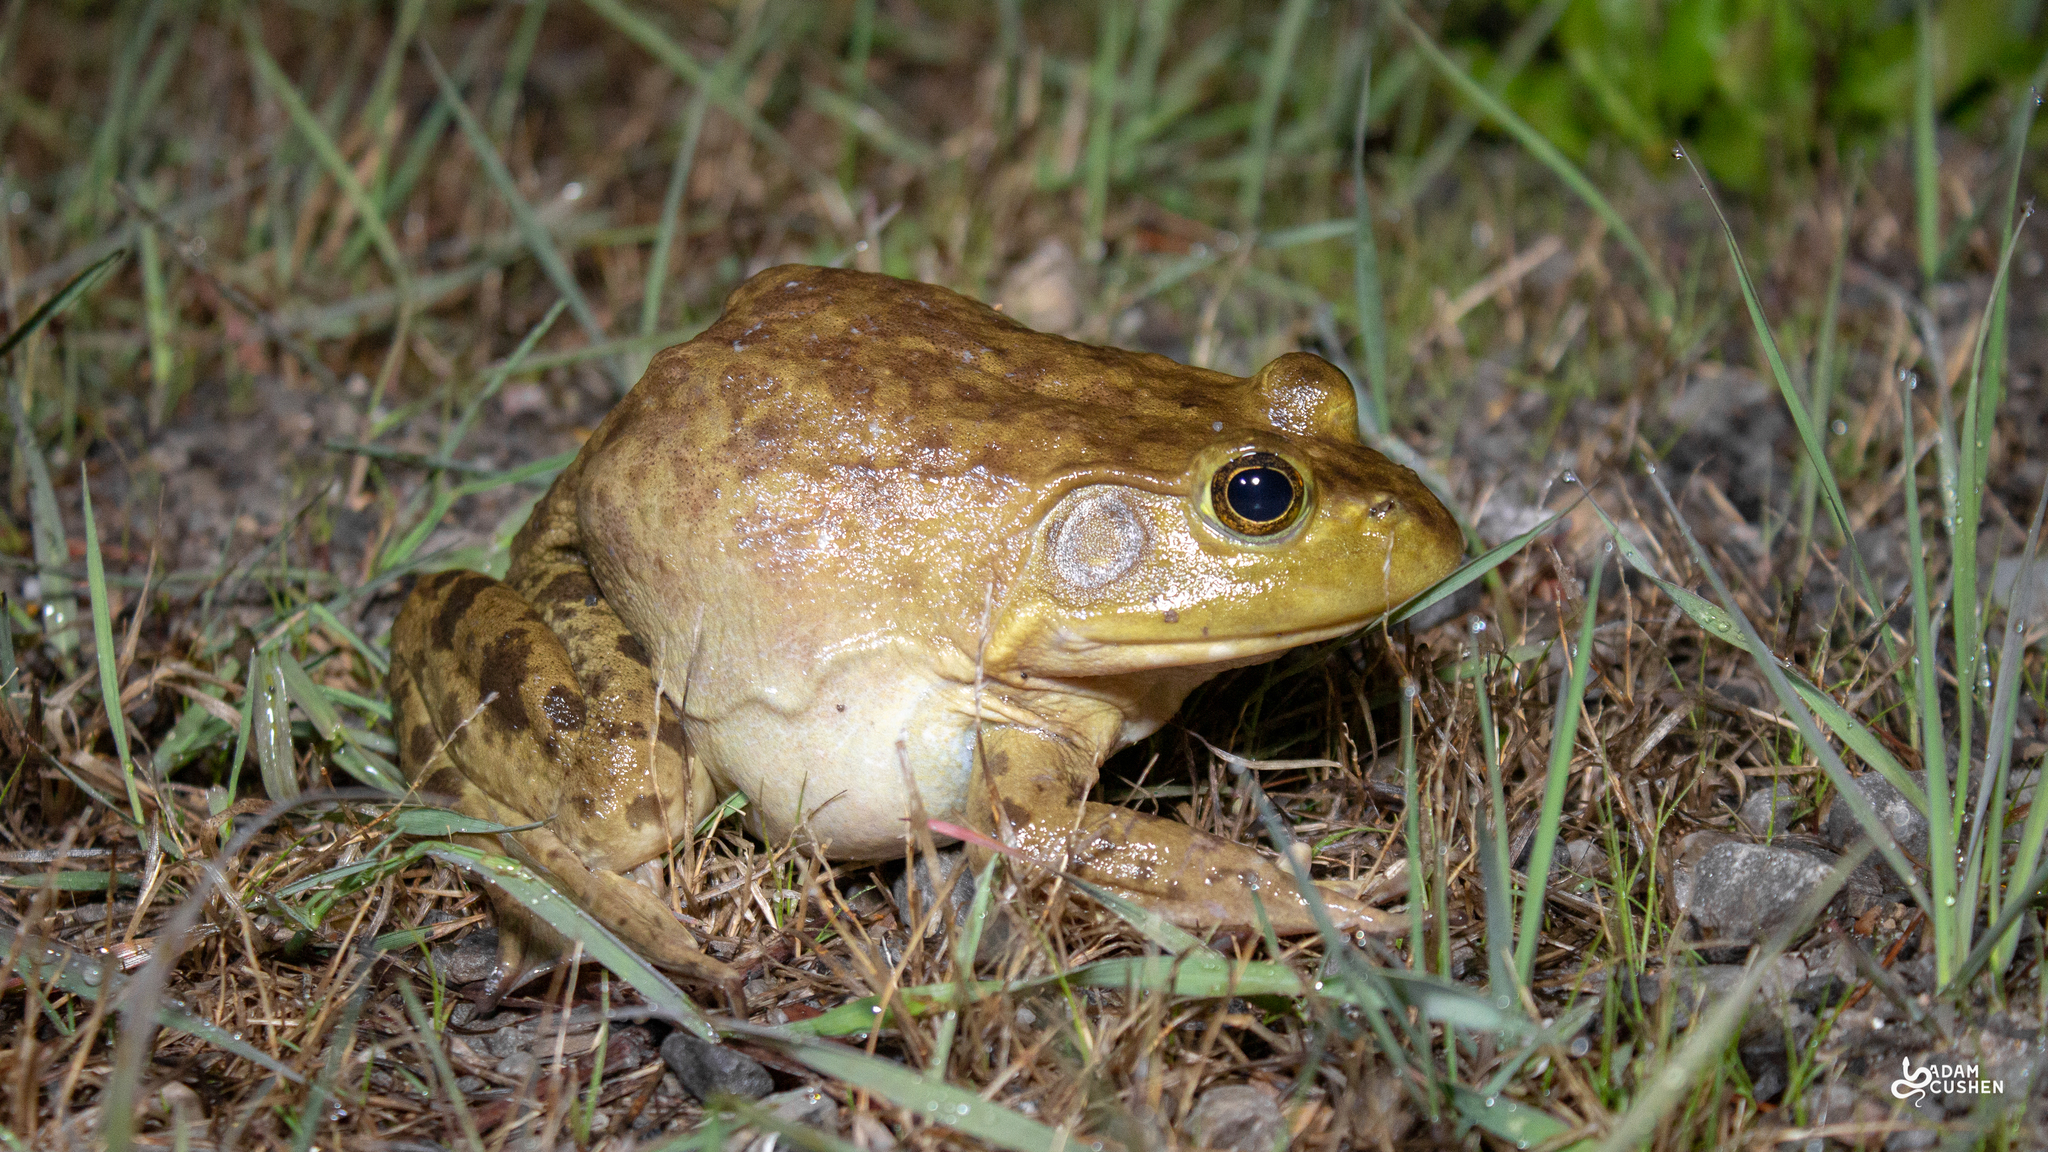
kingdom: Animalia
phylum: Chordata
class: Amphibia
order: Anura
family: Ranidae
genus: Lithobates
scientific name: Lithobates catesbeianus
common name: American bullfrog
